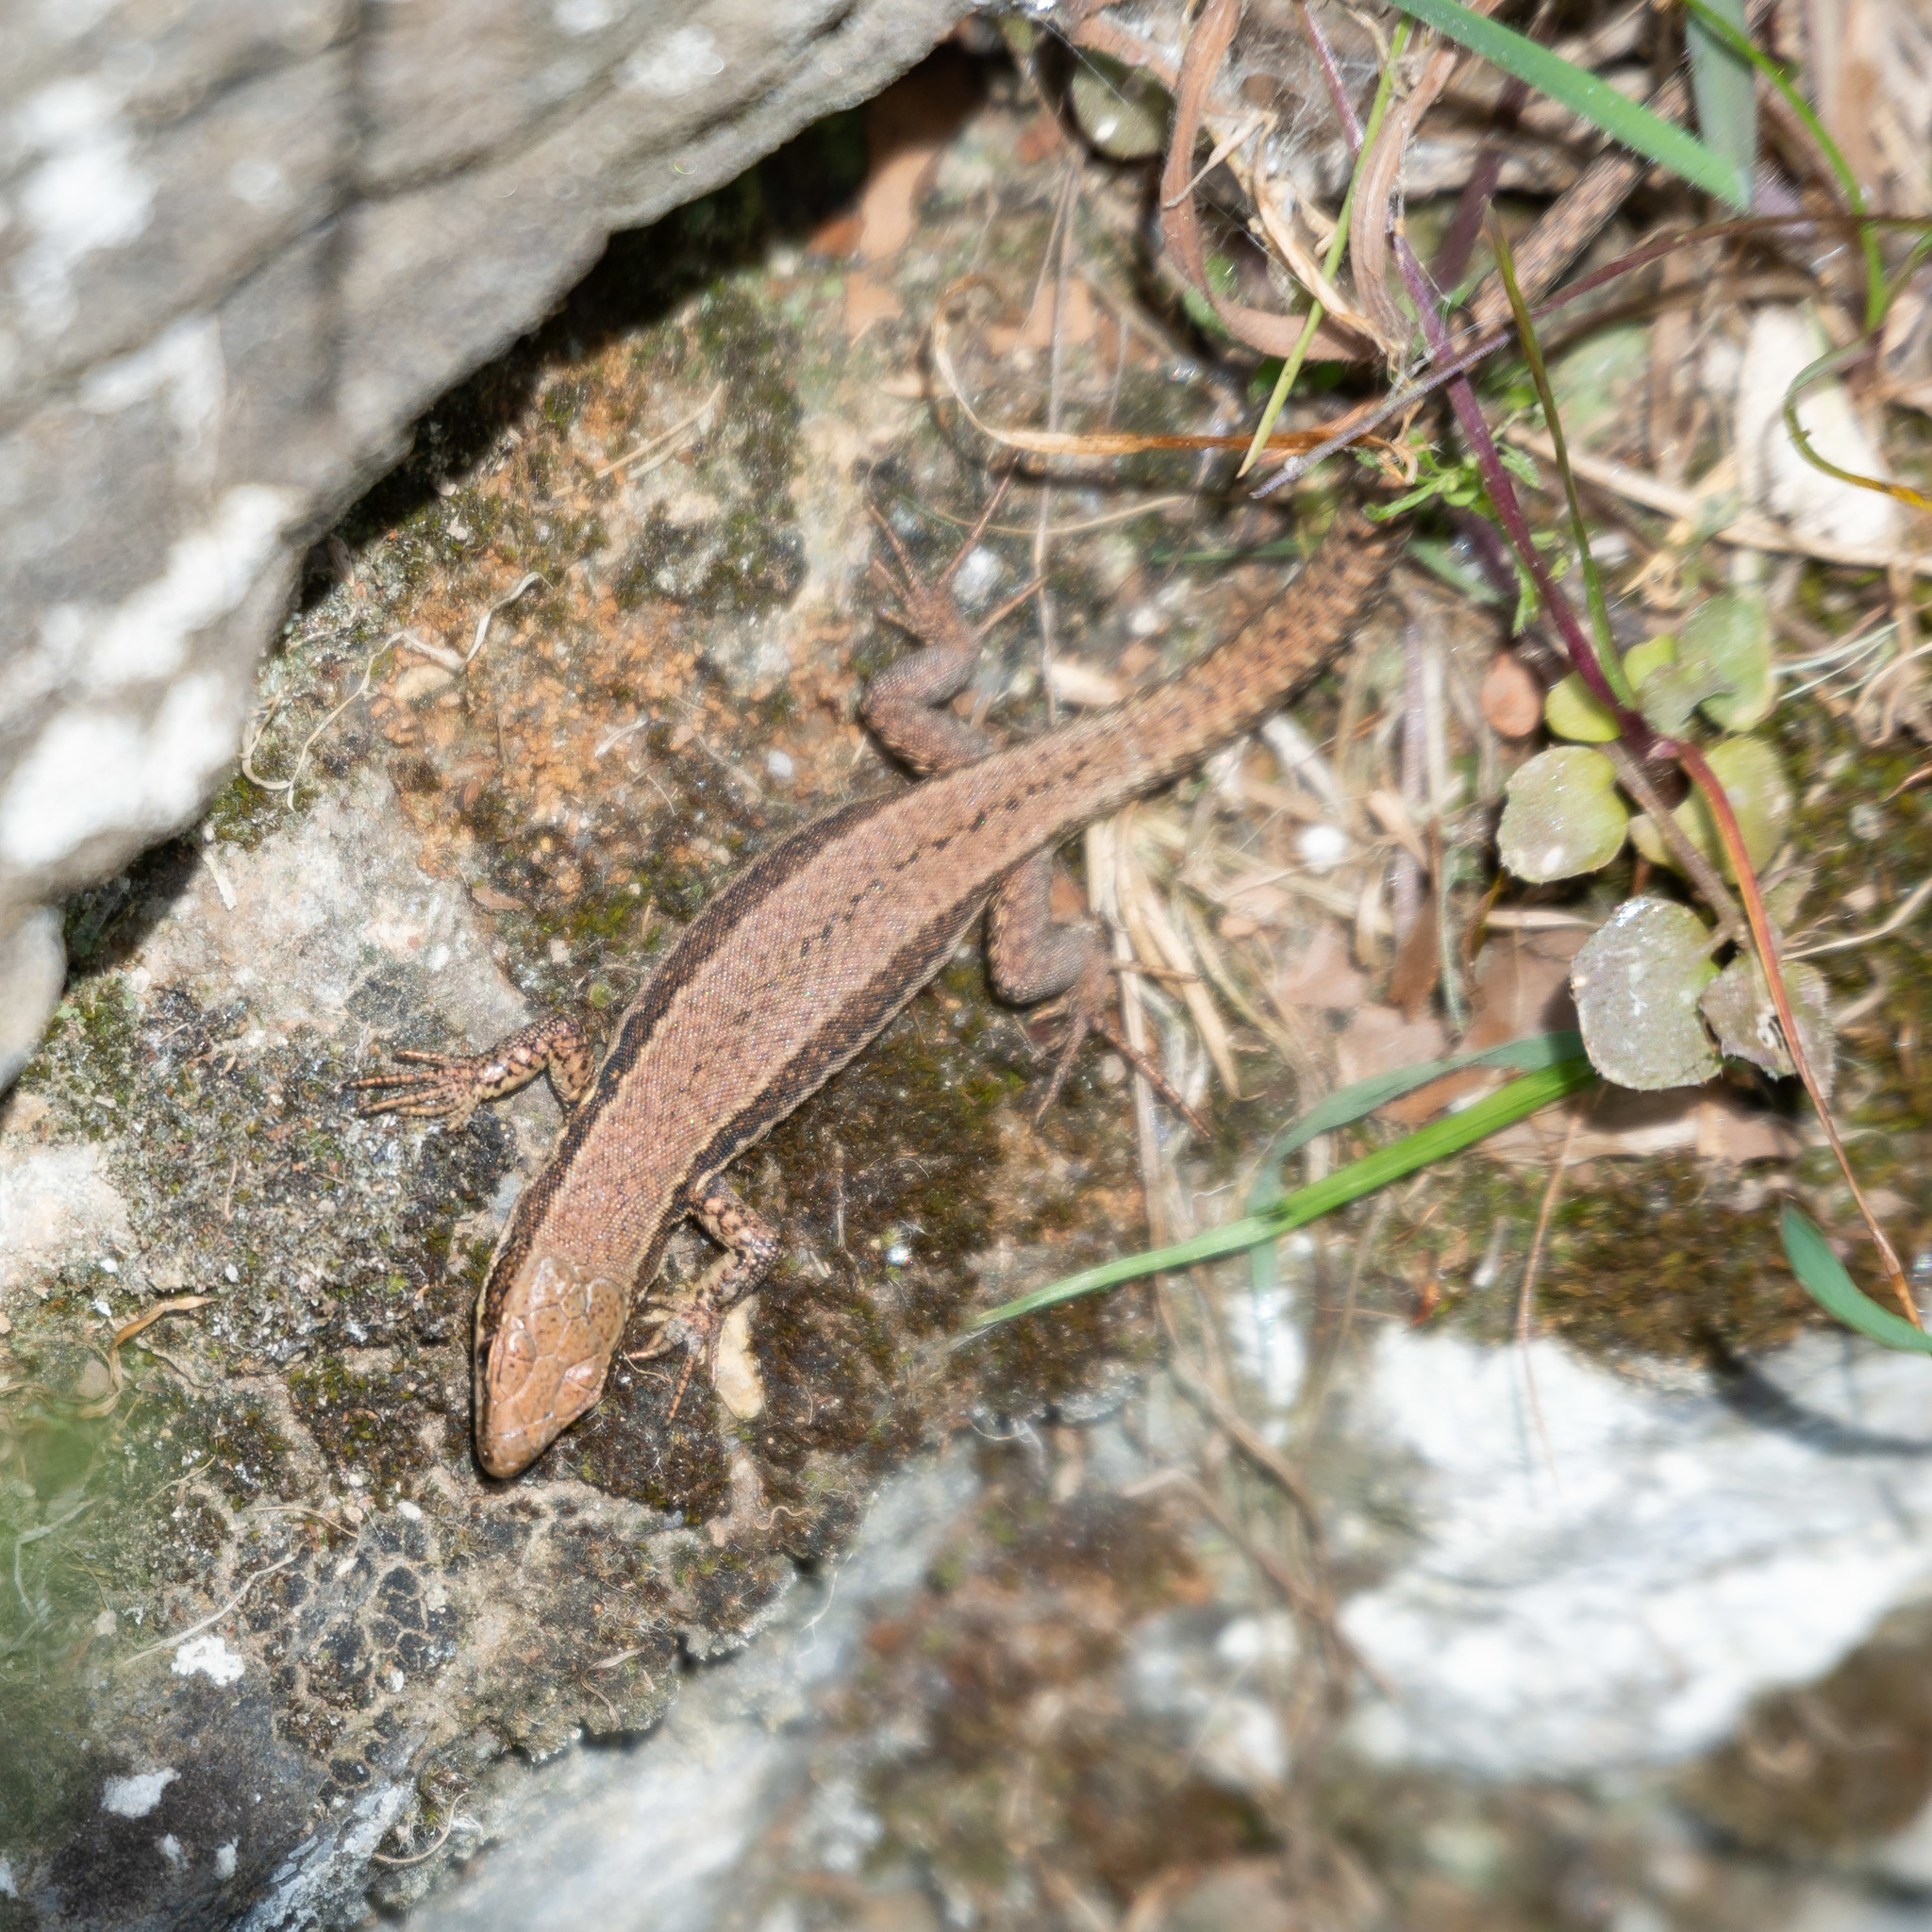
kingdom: Animalia
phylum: Chordata
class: Squamata
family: Lacertidae
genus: Podarcis
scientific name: Podarcis muralis
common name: Common wall lizard
